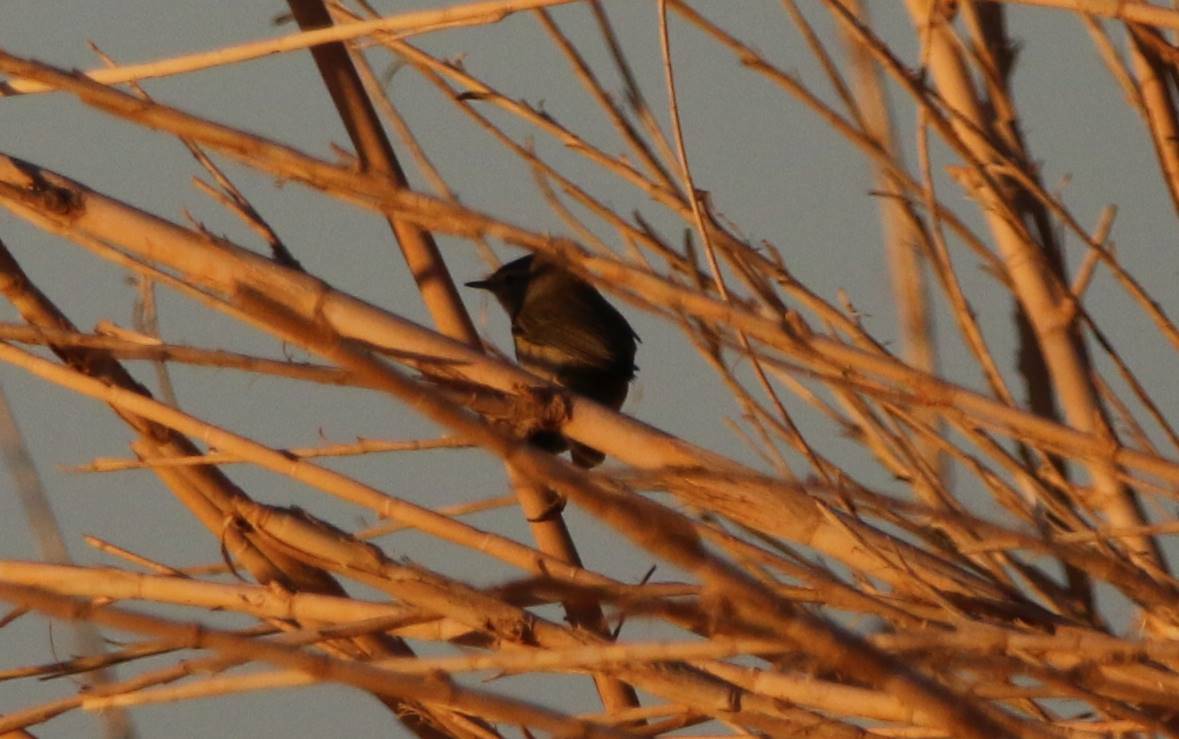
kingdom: Animalia
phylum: Chordata
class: Aves
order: Passeriformes
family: Phylloscopidae
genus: Phylloscopus
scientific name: Phylloscopus collybita
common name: Common chiffchaff
